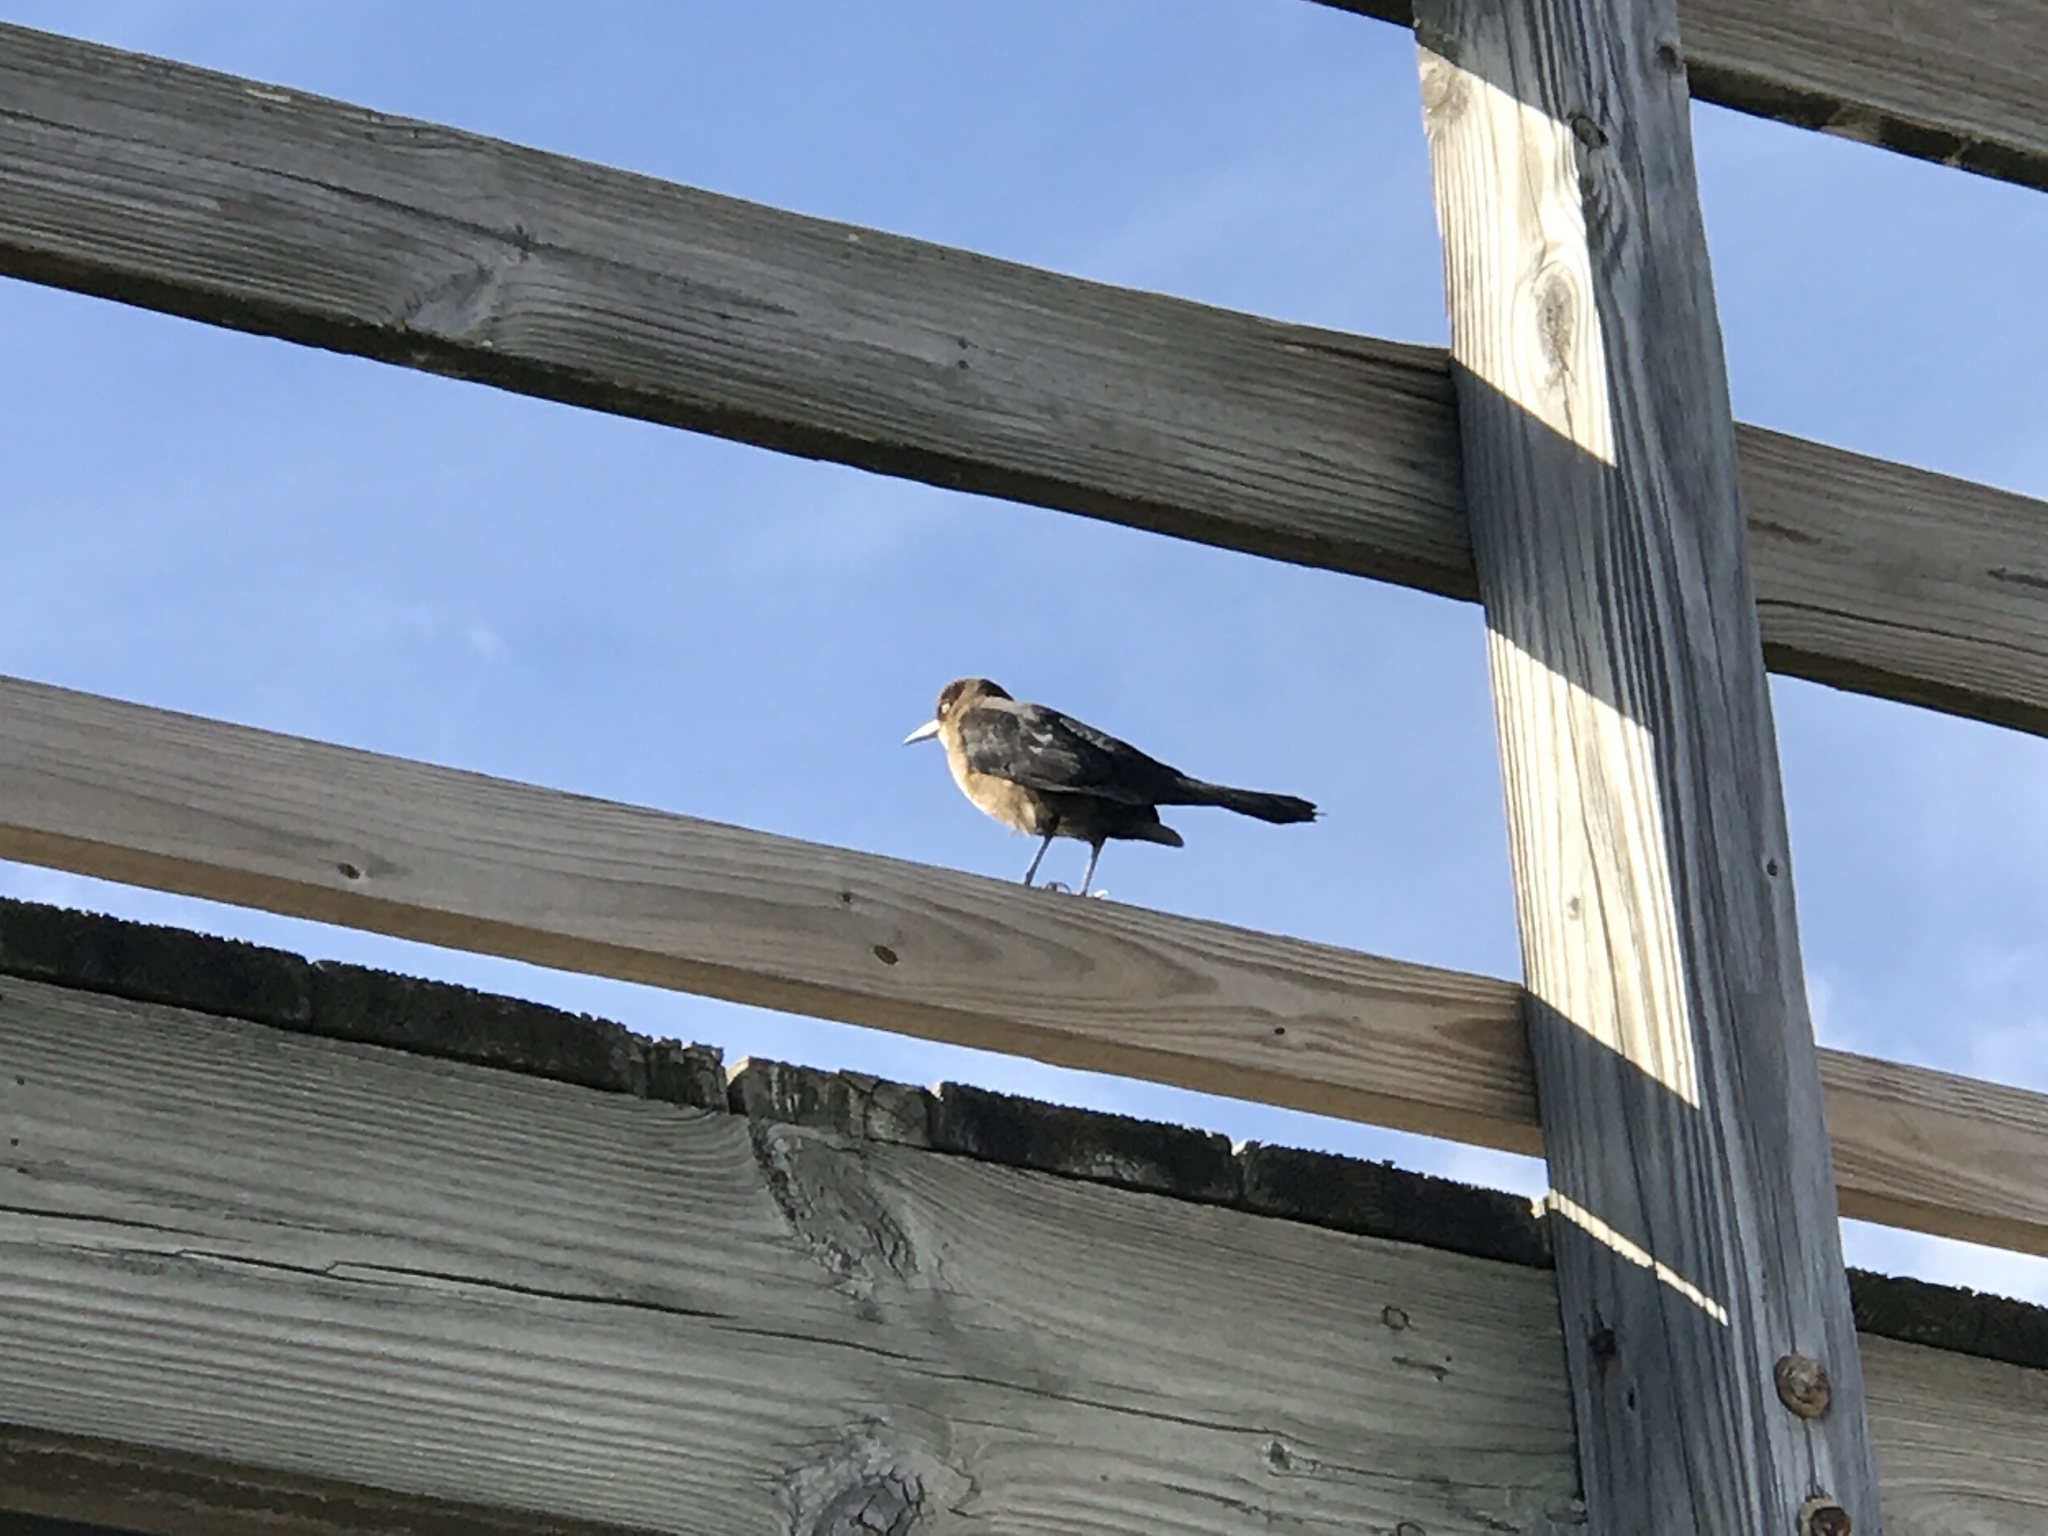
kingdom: Animalia
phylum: Chordata
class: Aves
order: Passeriformes
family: Icteridae
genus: Quiscalus
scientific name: Quiscalus major
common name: Boat-tailed grackle
